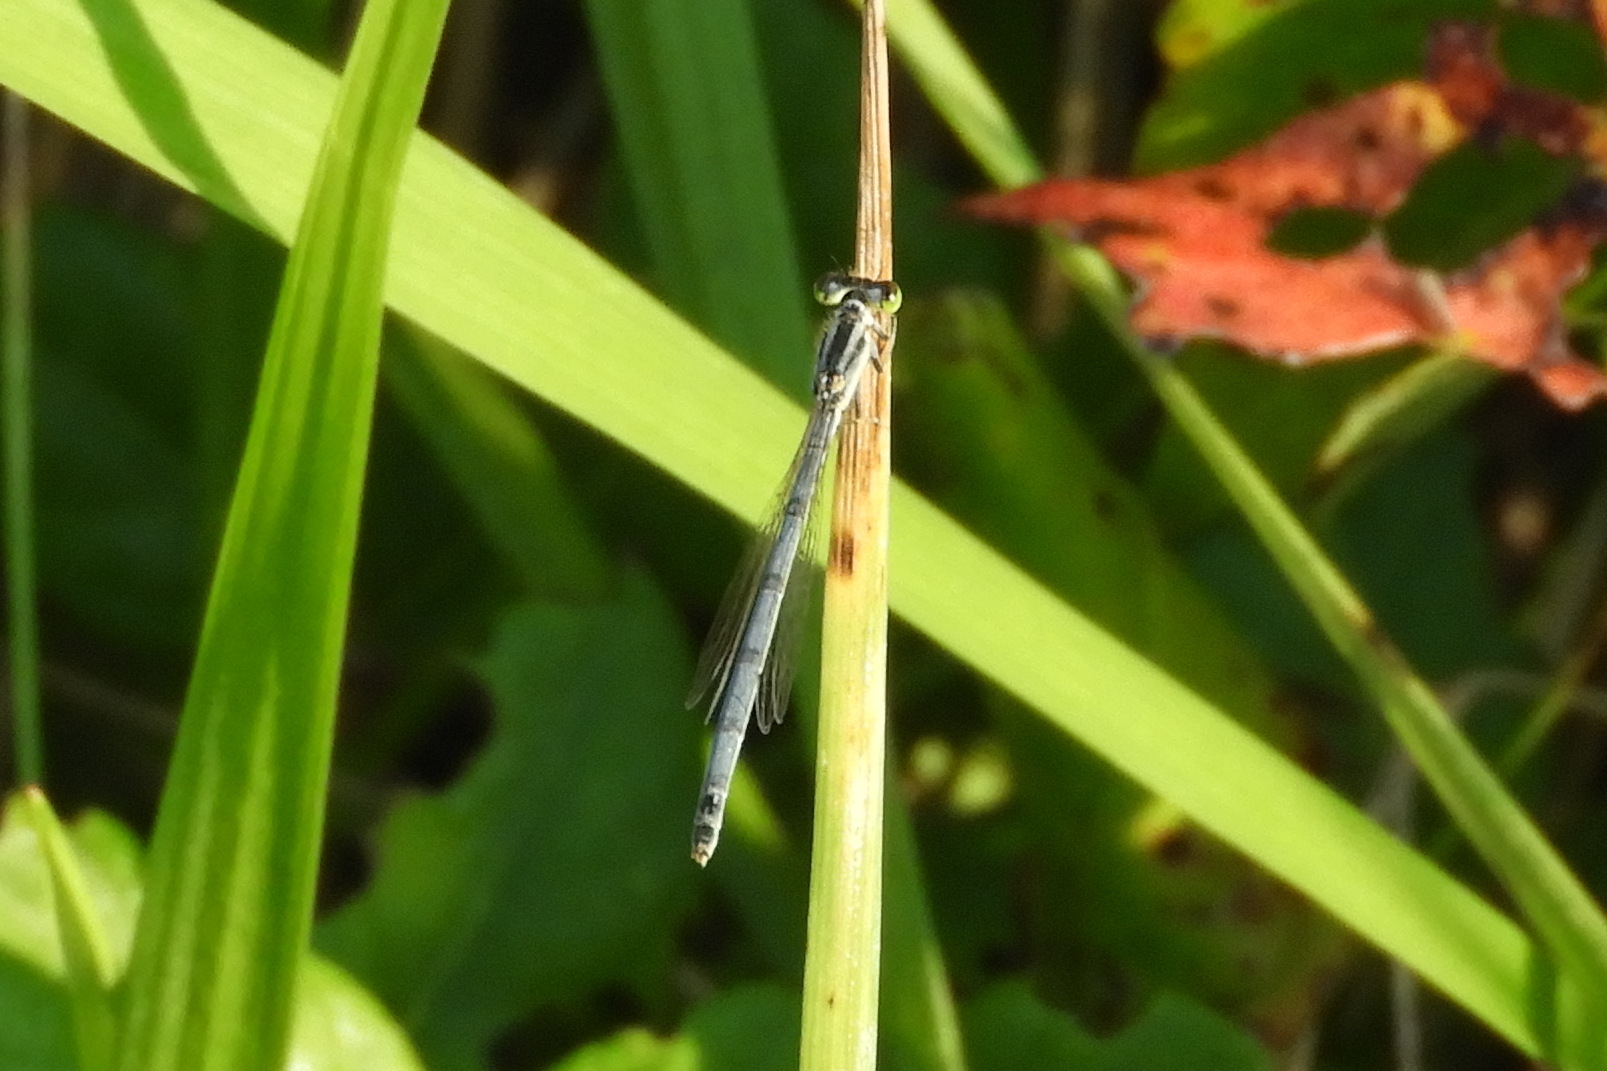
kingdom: Animalia
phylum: Arthropoda
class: Insecta
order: Odonata
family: Coenagrionidae
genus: Ischnura
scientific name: Ischnura verticalis
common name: Eastern forktail
